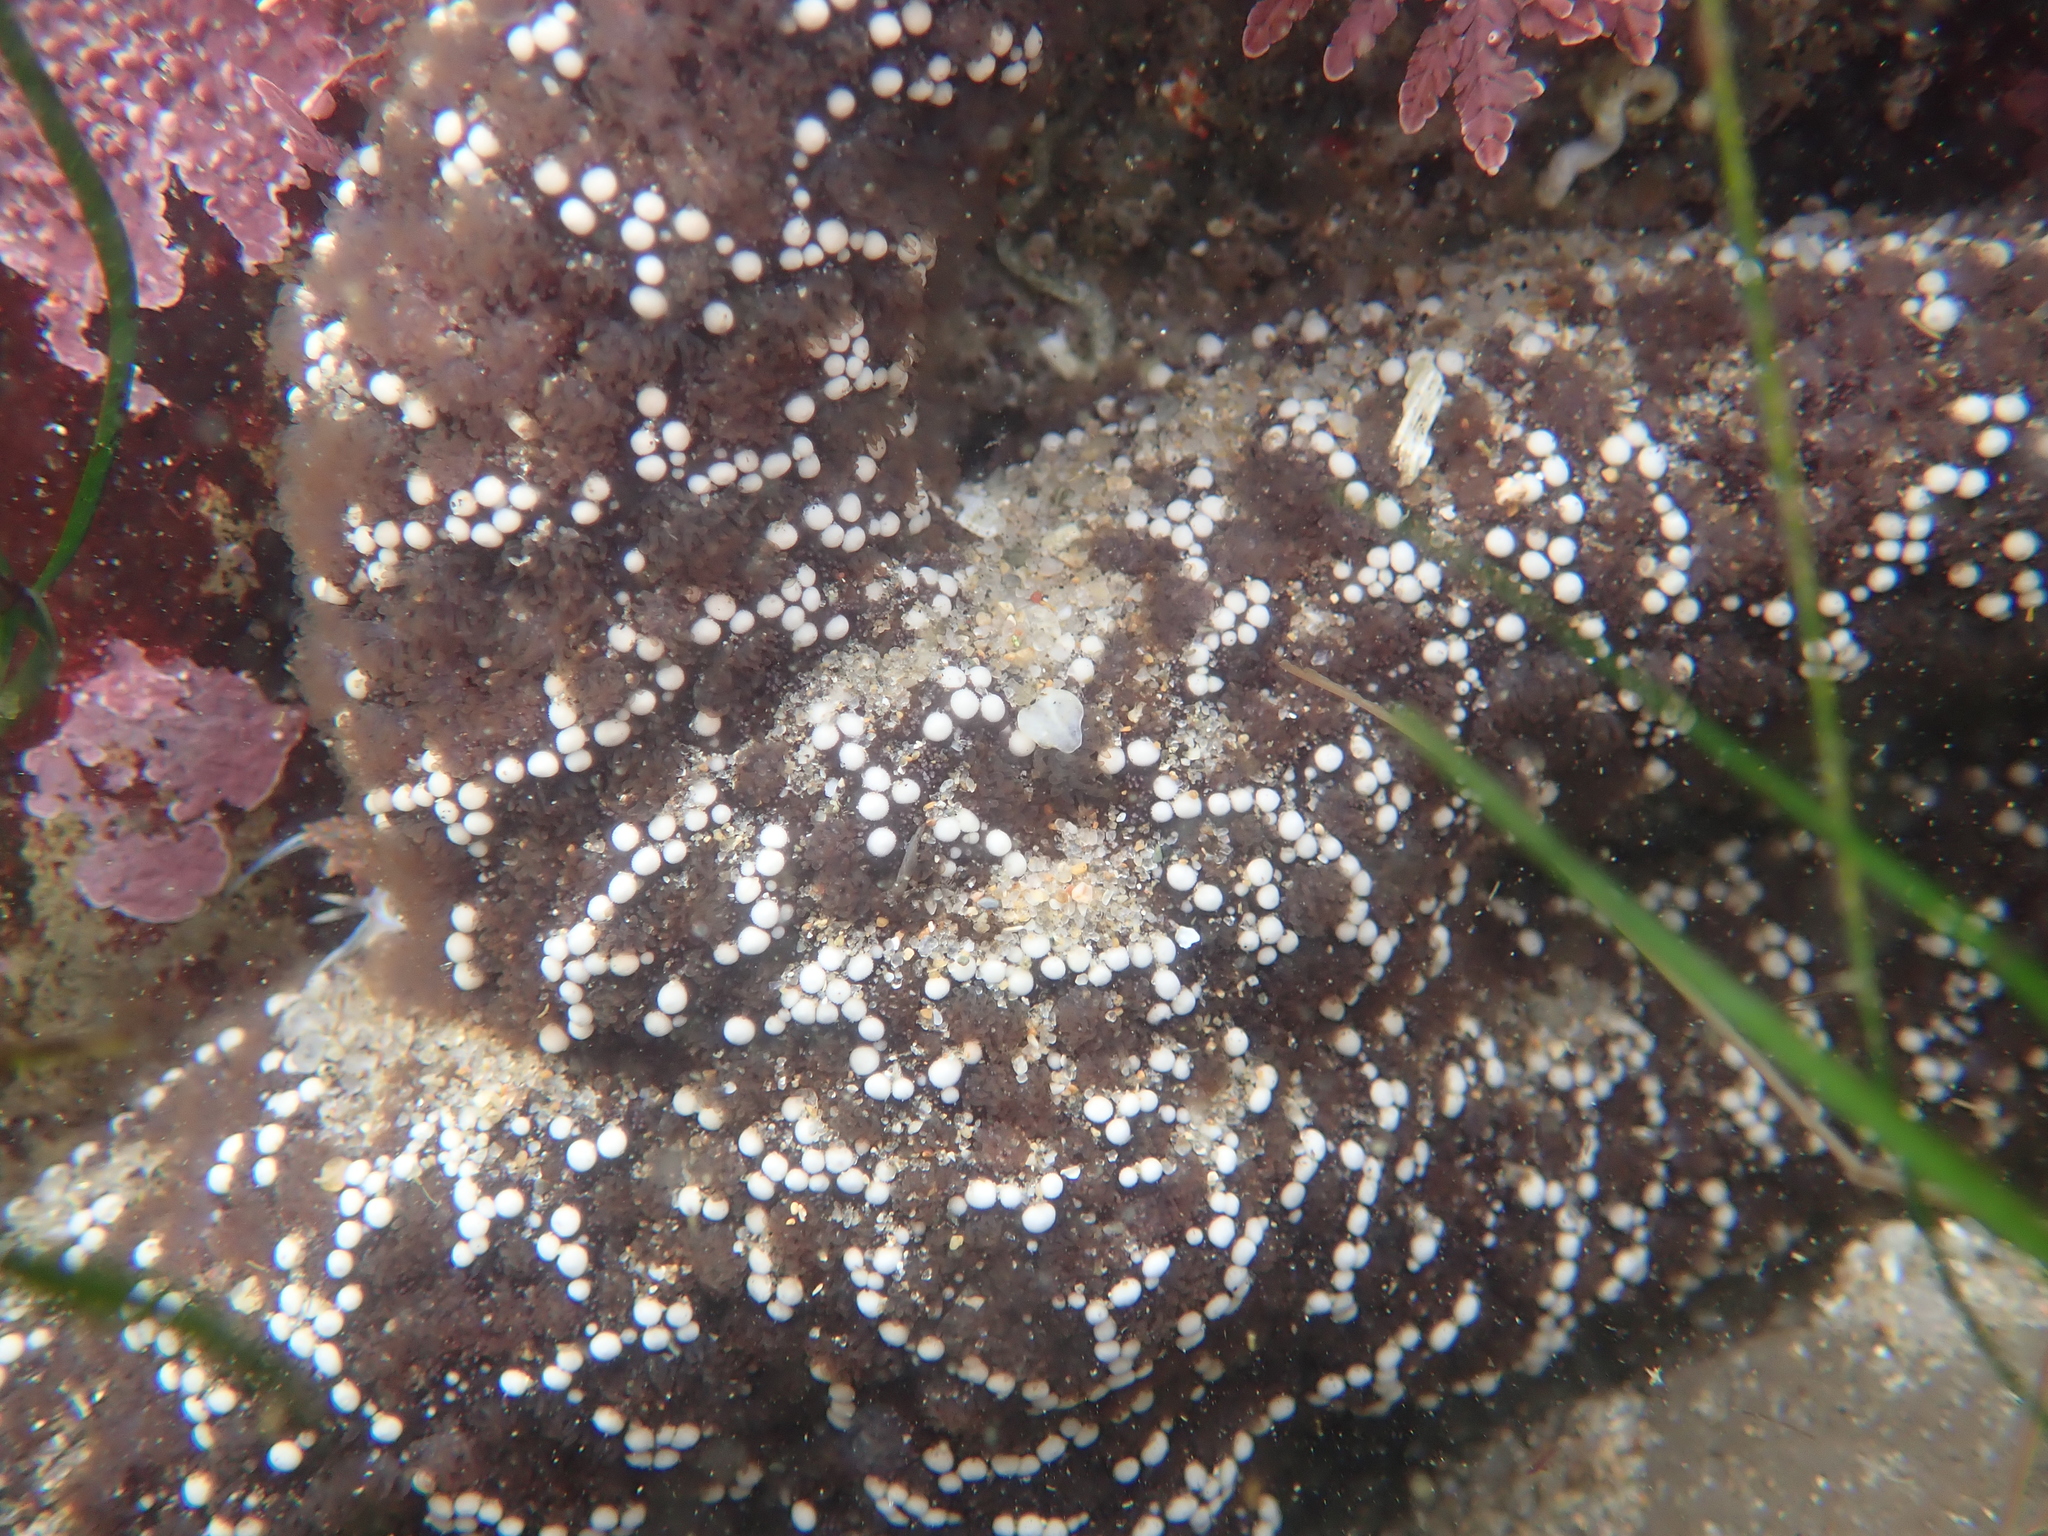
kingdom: Animalia
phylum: Echinodermata
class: Asteroidea
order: Forcipulatida
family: Asteriidae
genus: Pisaster
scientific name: Pisaster ochraceus
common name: Ochre stars
